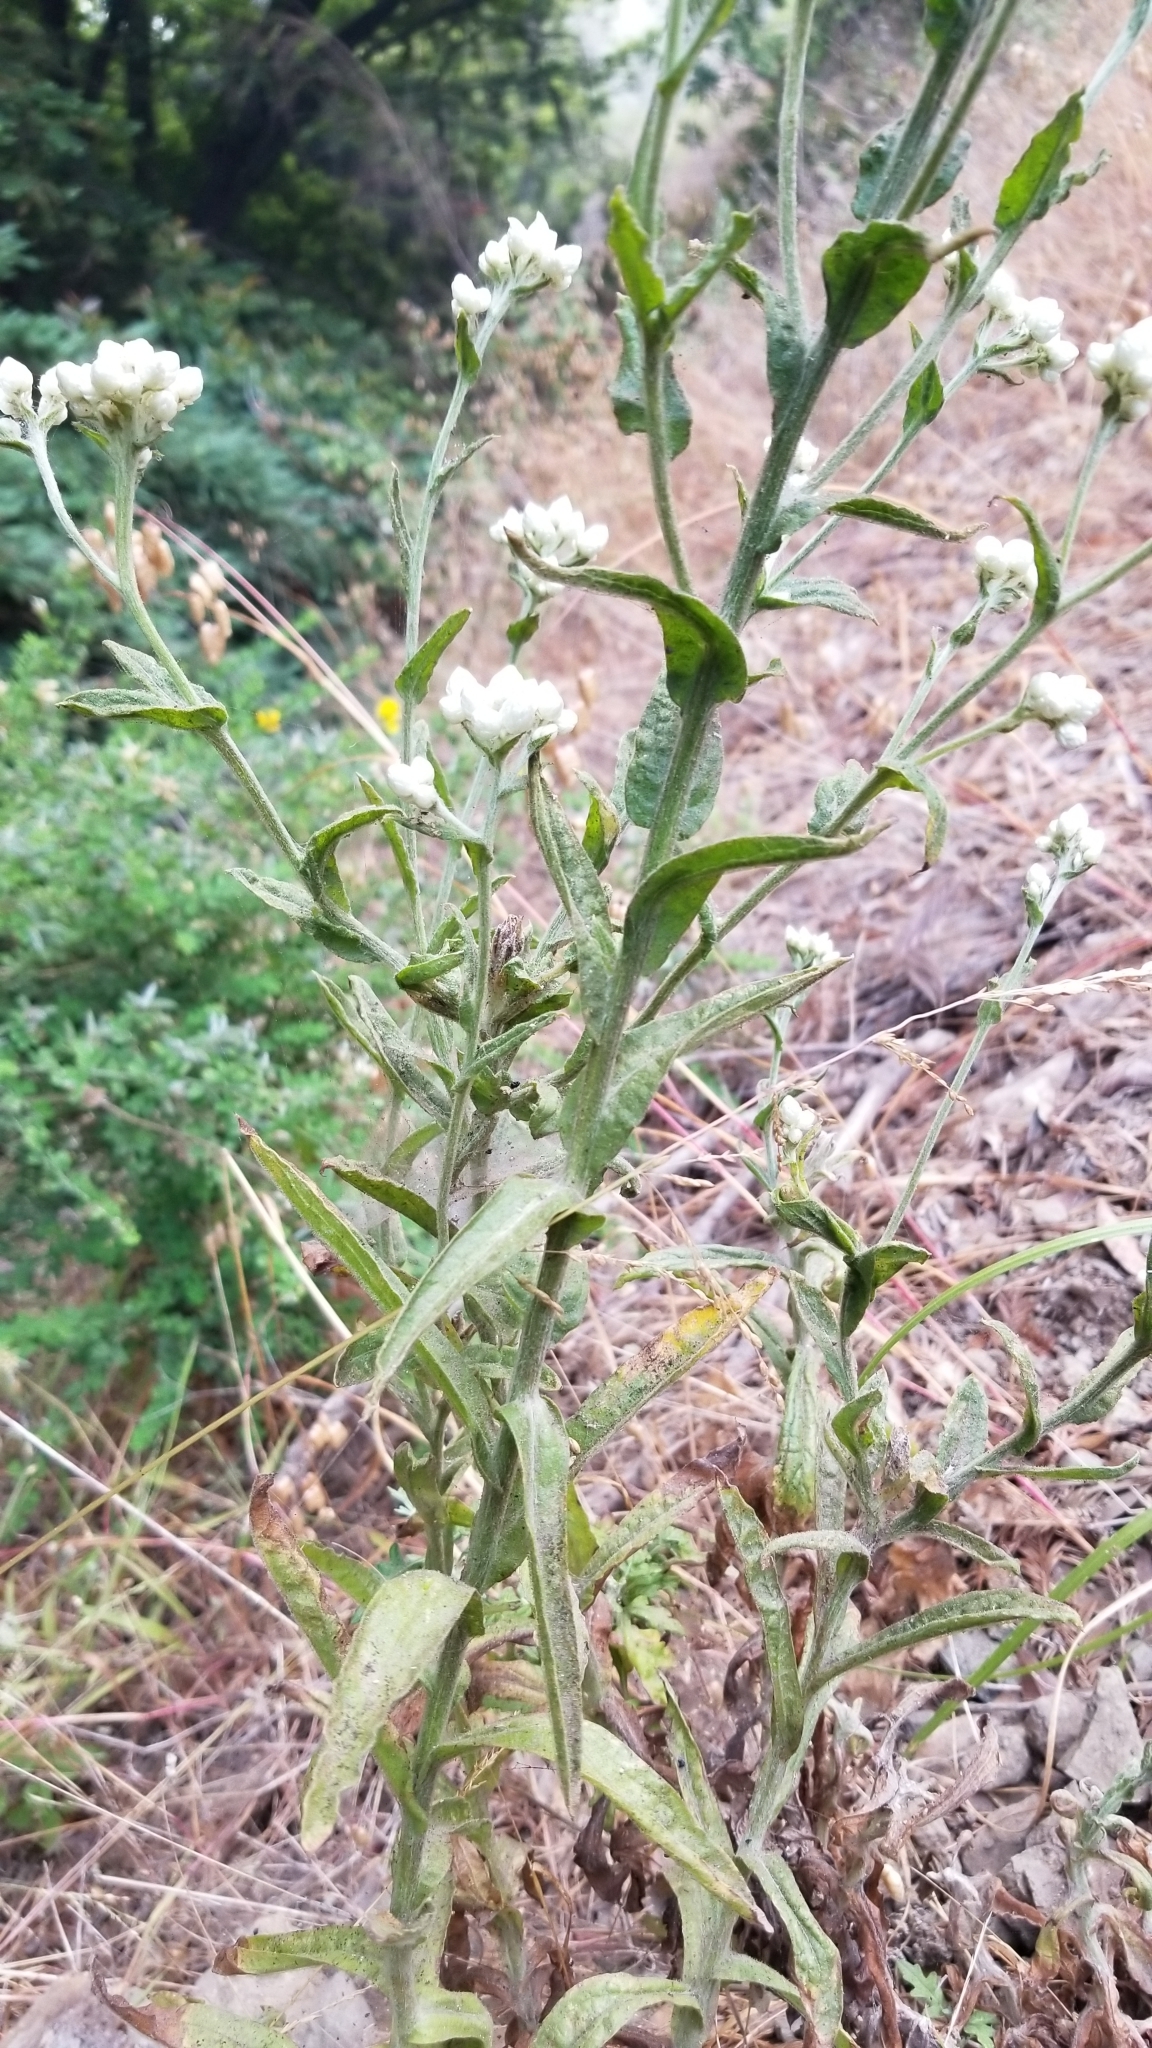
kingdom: Plantae
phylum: Tracheophyta
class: Magnoliopsida
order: Asterales
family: Asteraceae
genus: Pseudognaphalium
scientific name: Pseudognaphalium californicum
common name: California rabbit-tobacco
